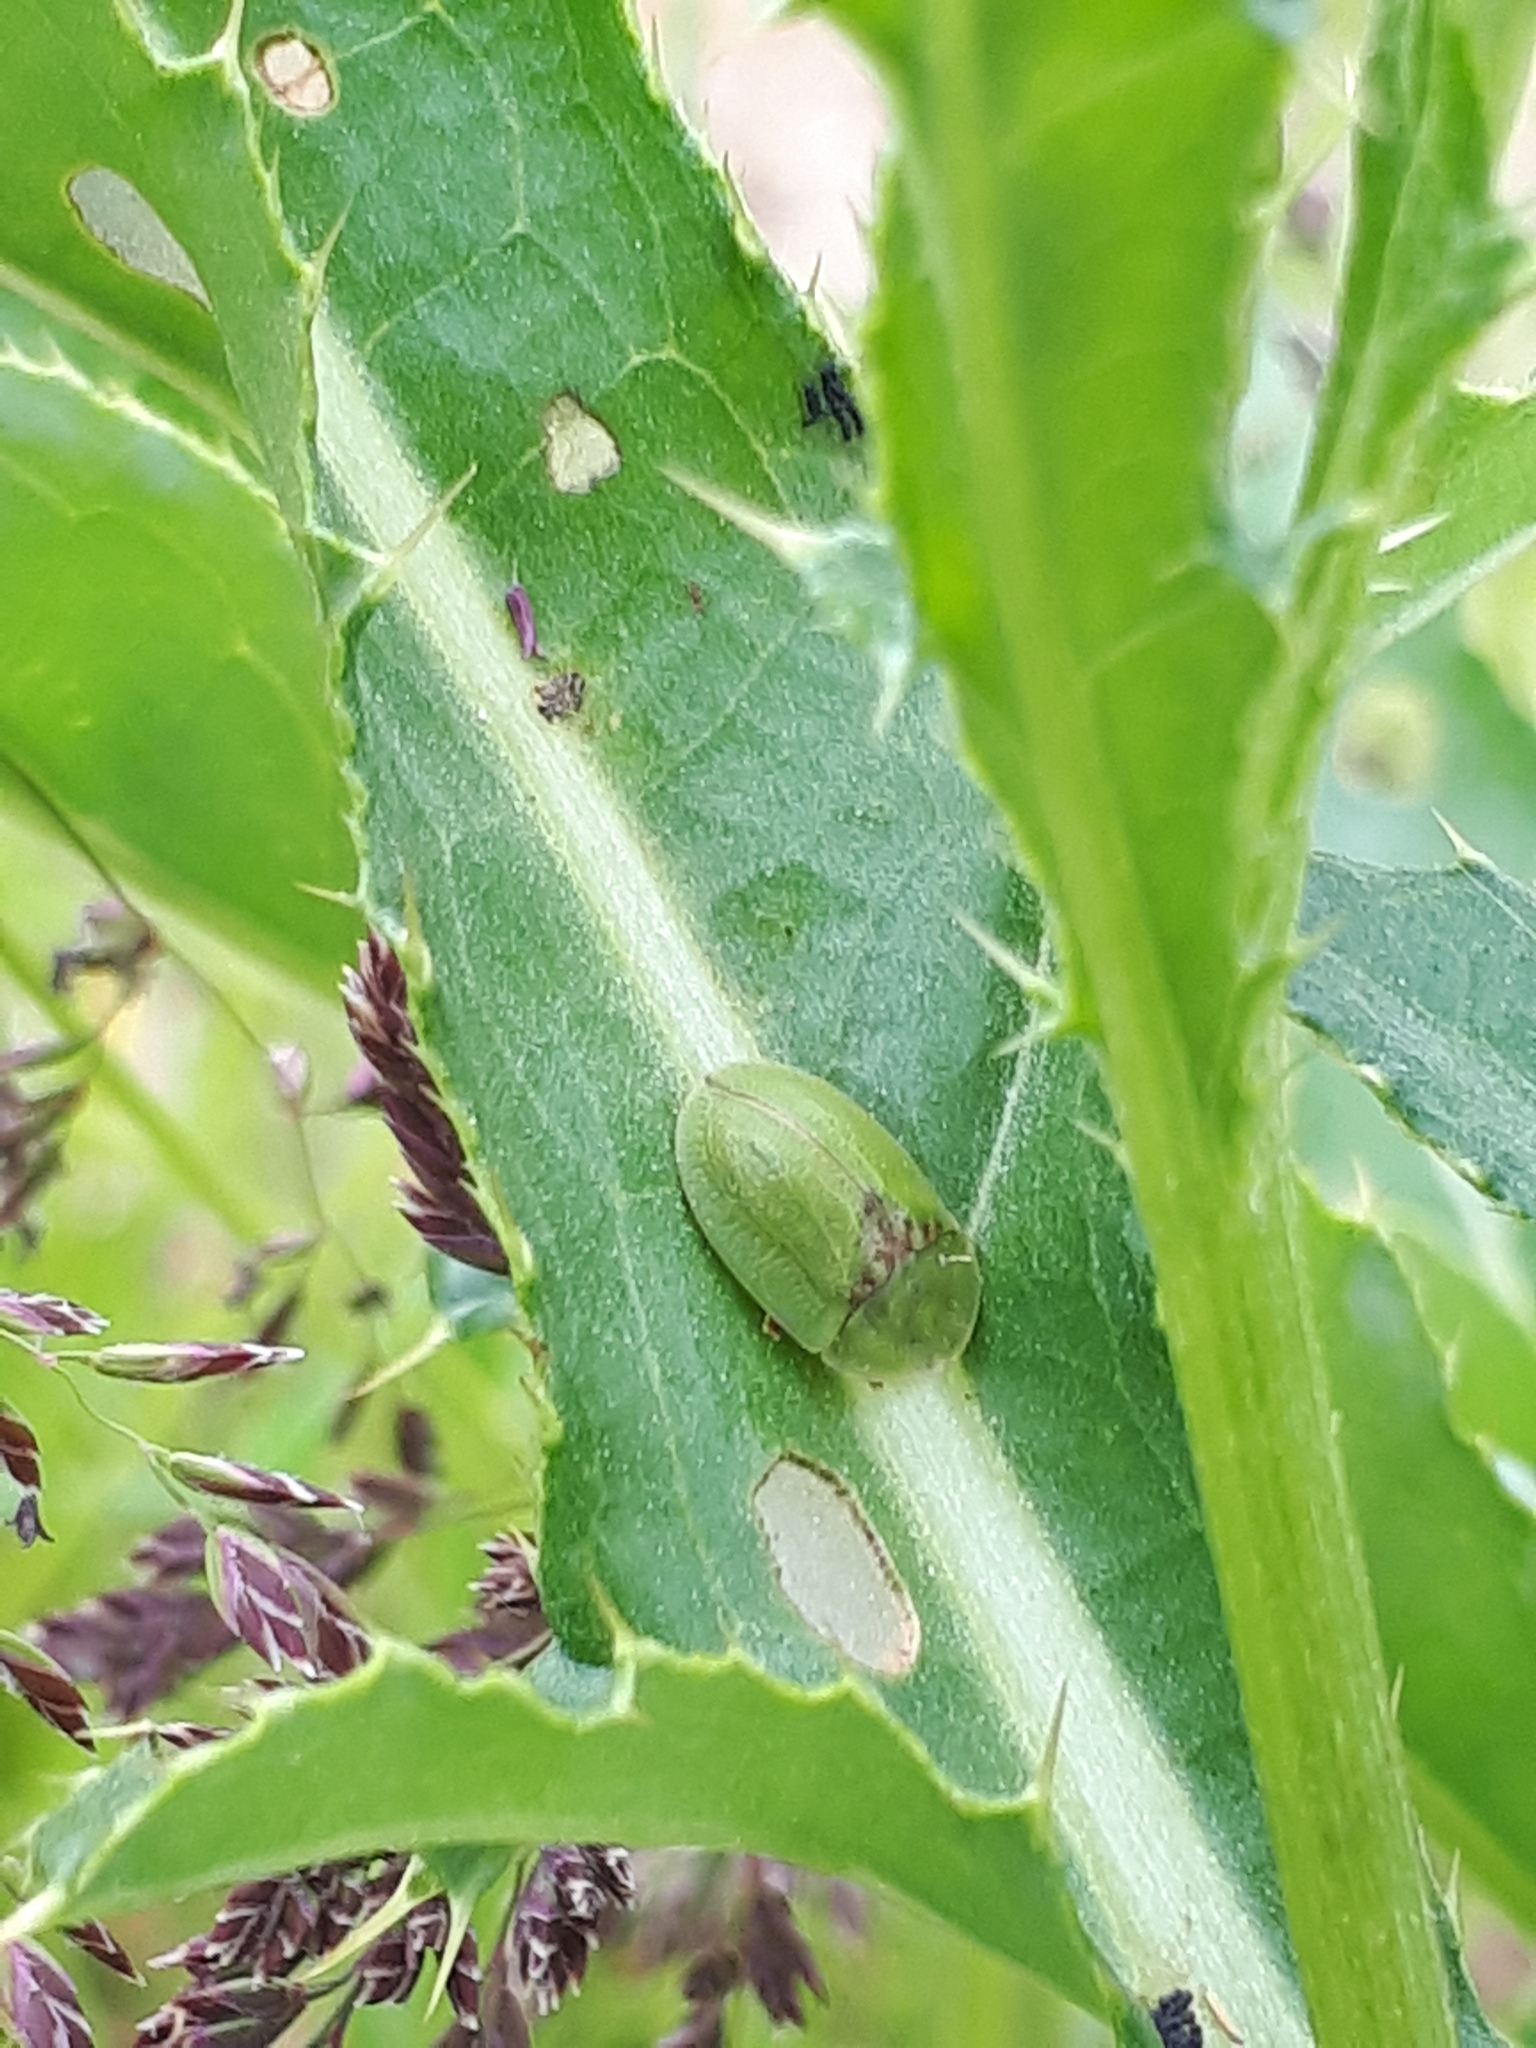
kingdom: Animalia
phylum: Arthropoda
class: Insecta
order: Coleoptera
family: Chrysomelidae
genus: Cassida
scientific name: Cassida rubiginosa
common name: Thistle tortoise beetle
